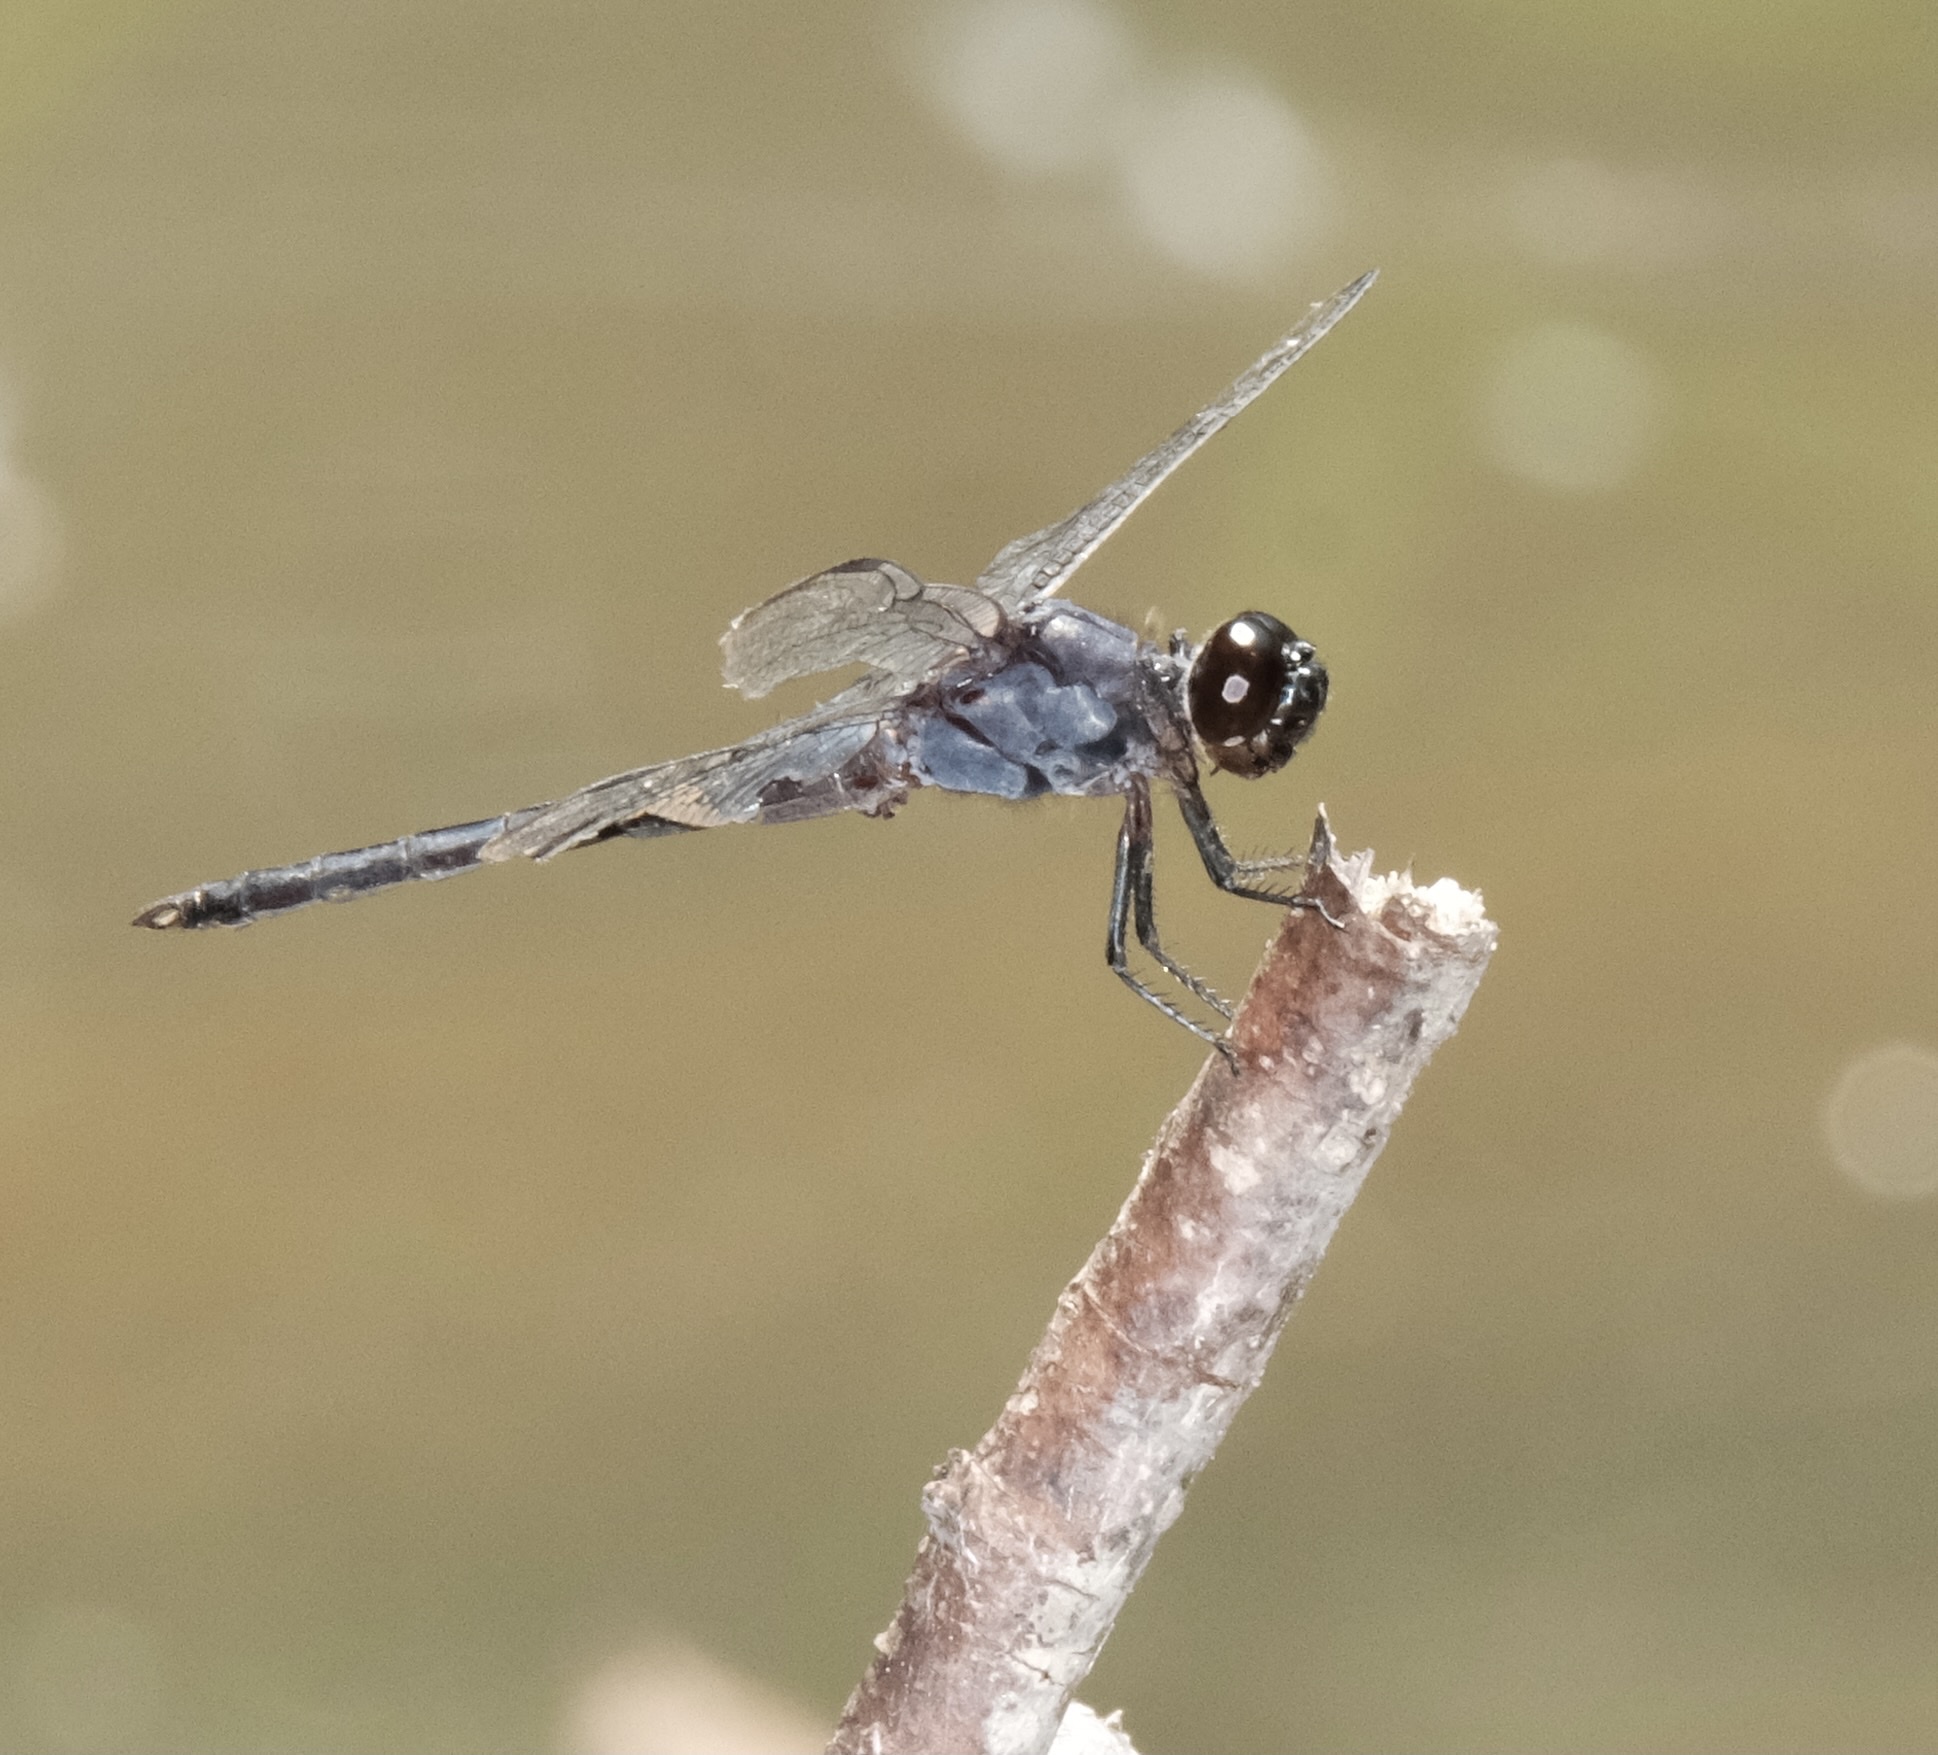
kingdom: Animalia
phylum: Arthropoda
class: Insecta
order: Odonata
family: Libellulidae
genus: Libellula
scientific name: Libellula incesta
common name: Slaty skimmer
